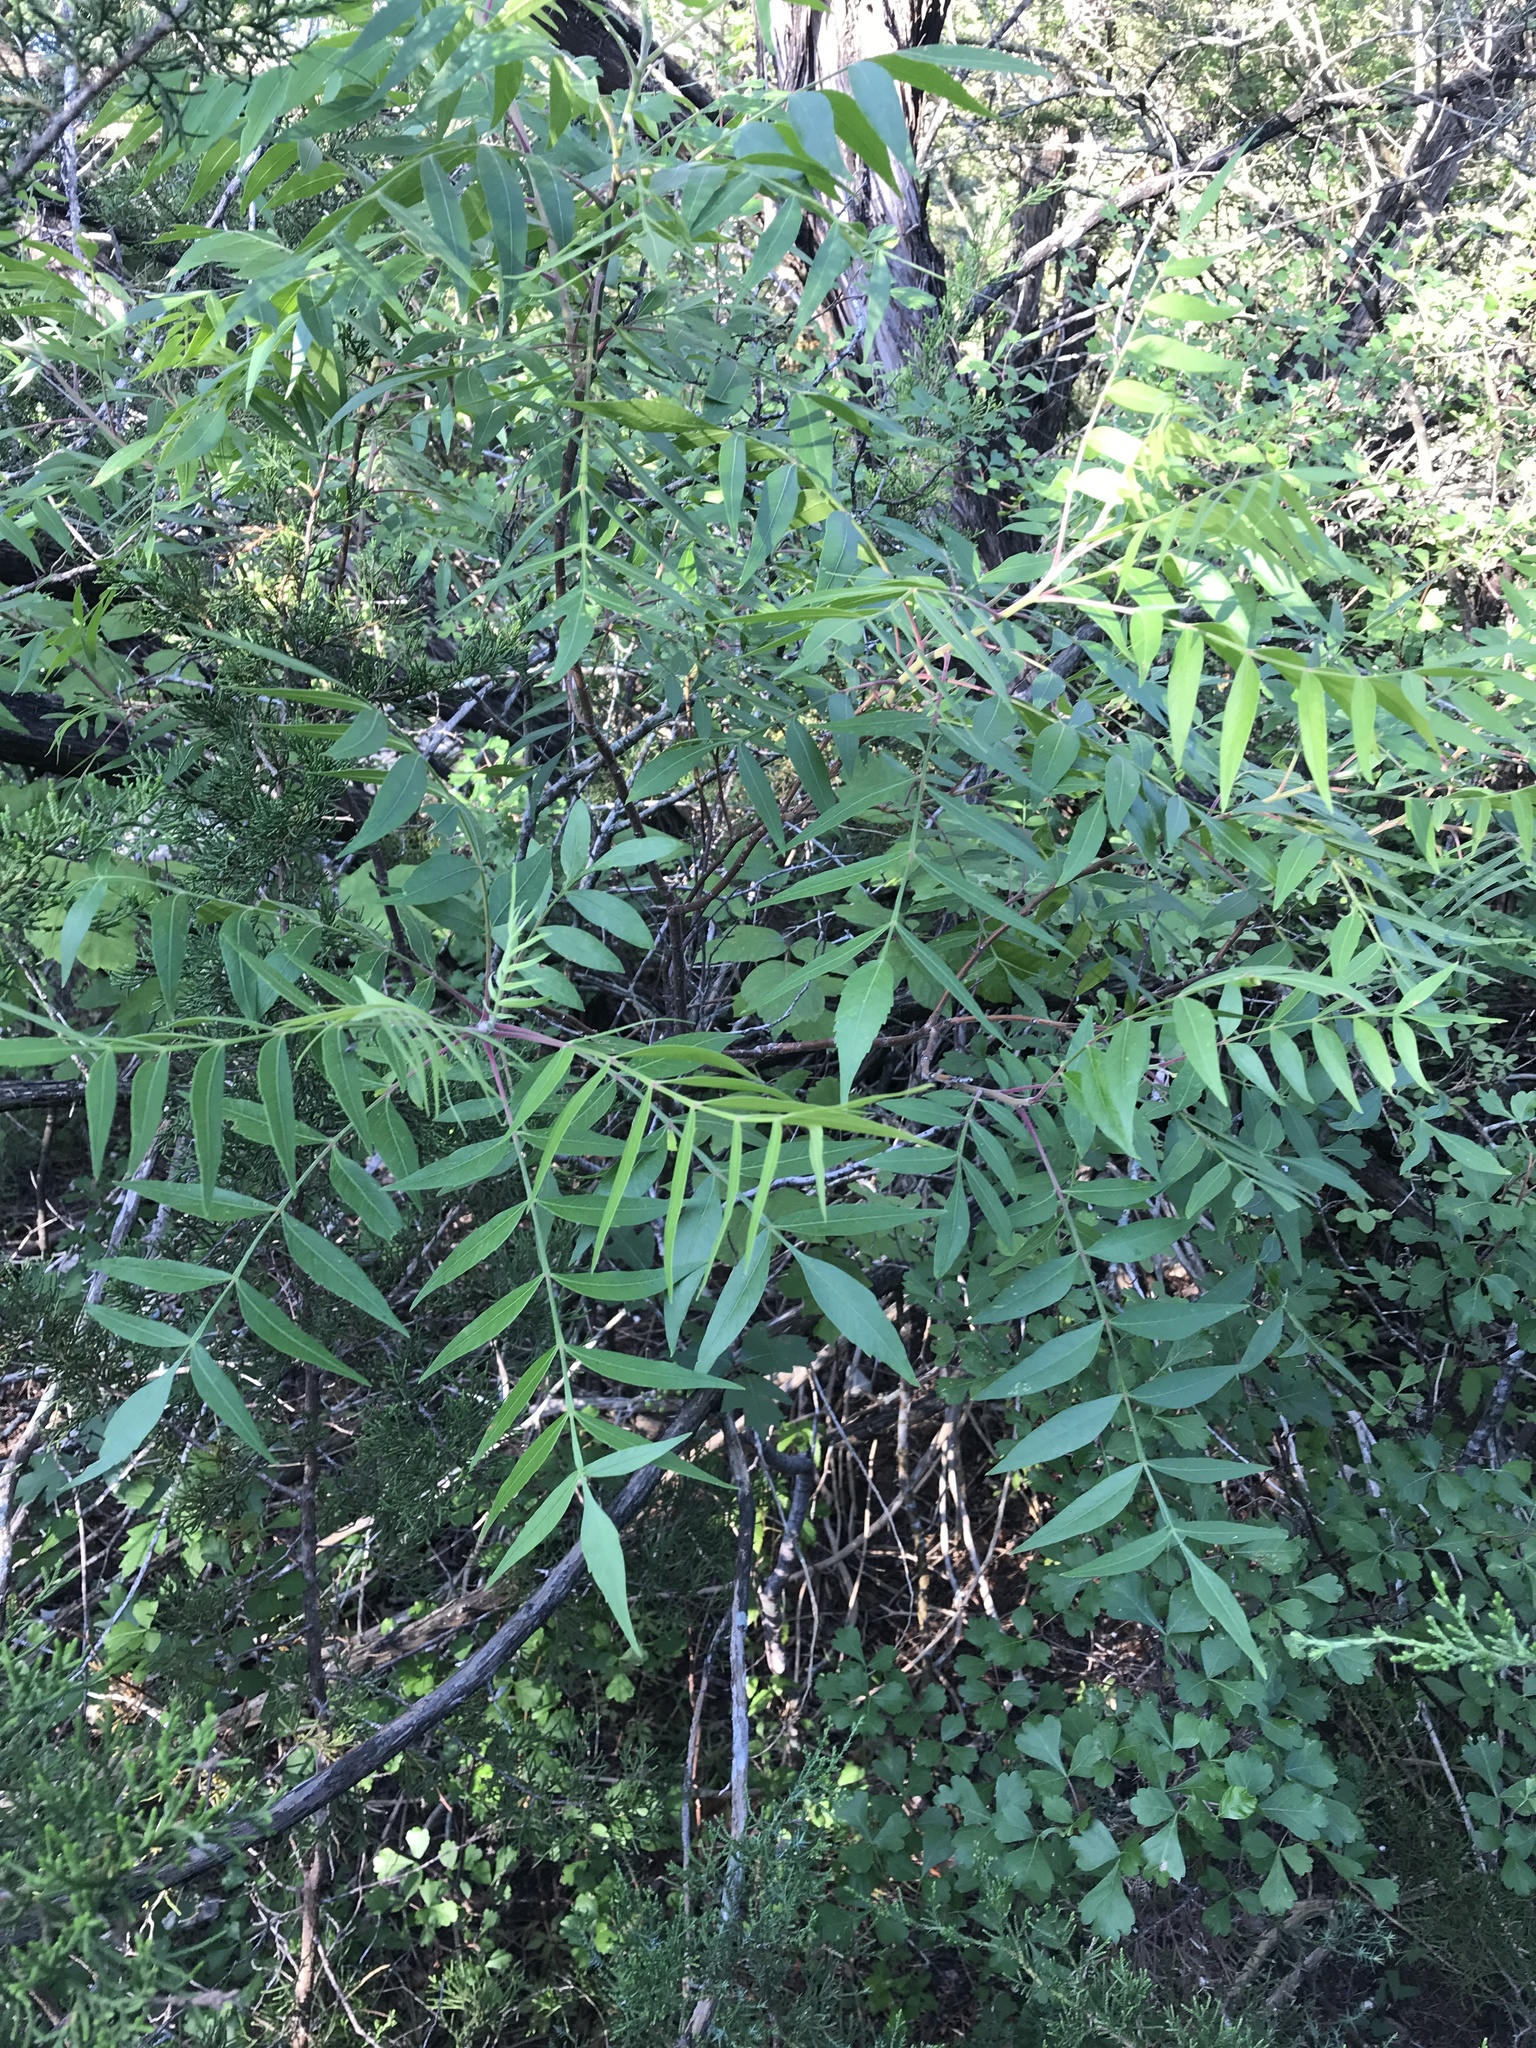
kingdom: Plantae
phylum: Tracheophyta
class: Magnoliopsida
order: Sapindales
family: Anacardiaceae
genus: Rhus
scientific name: Rhus lanceolata
